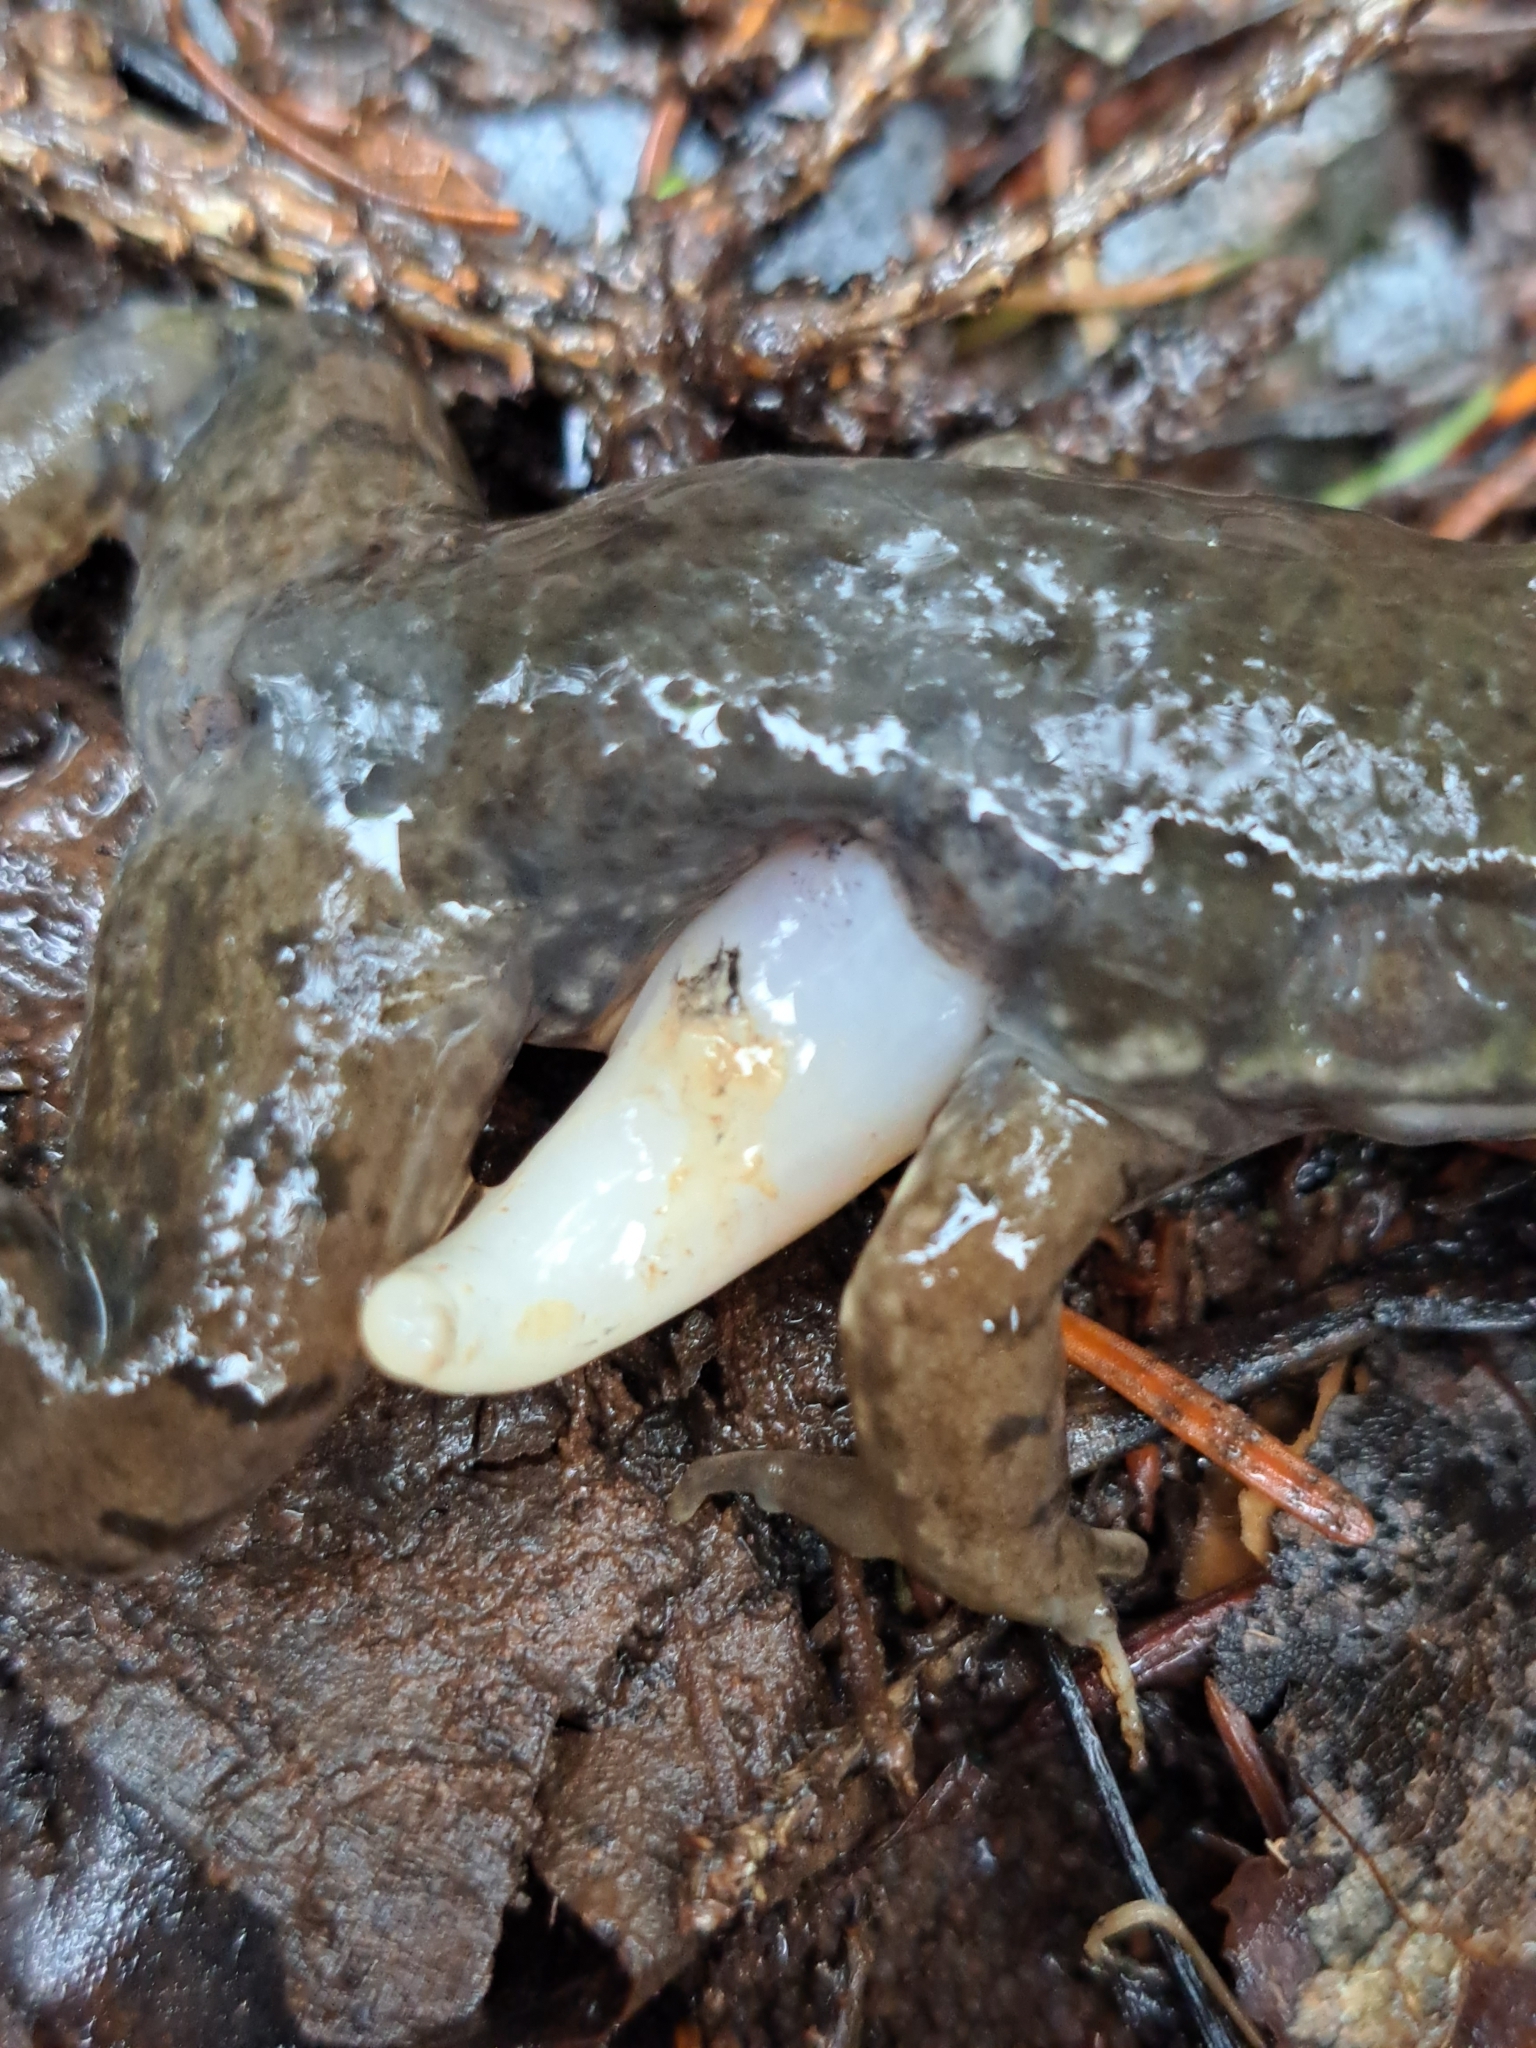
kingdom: Animalia
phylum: Chordata
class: Amphibia
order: Anura
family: Ranidae
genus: Lithobates
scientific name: Lithobates clamitans
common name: Green frog
